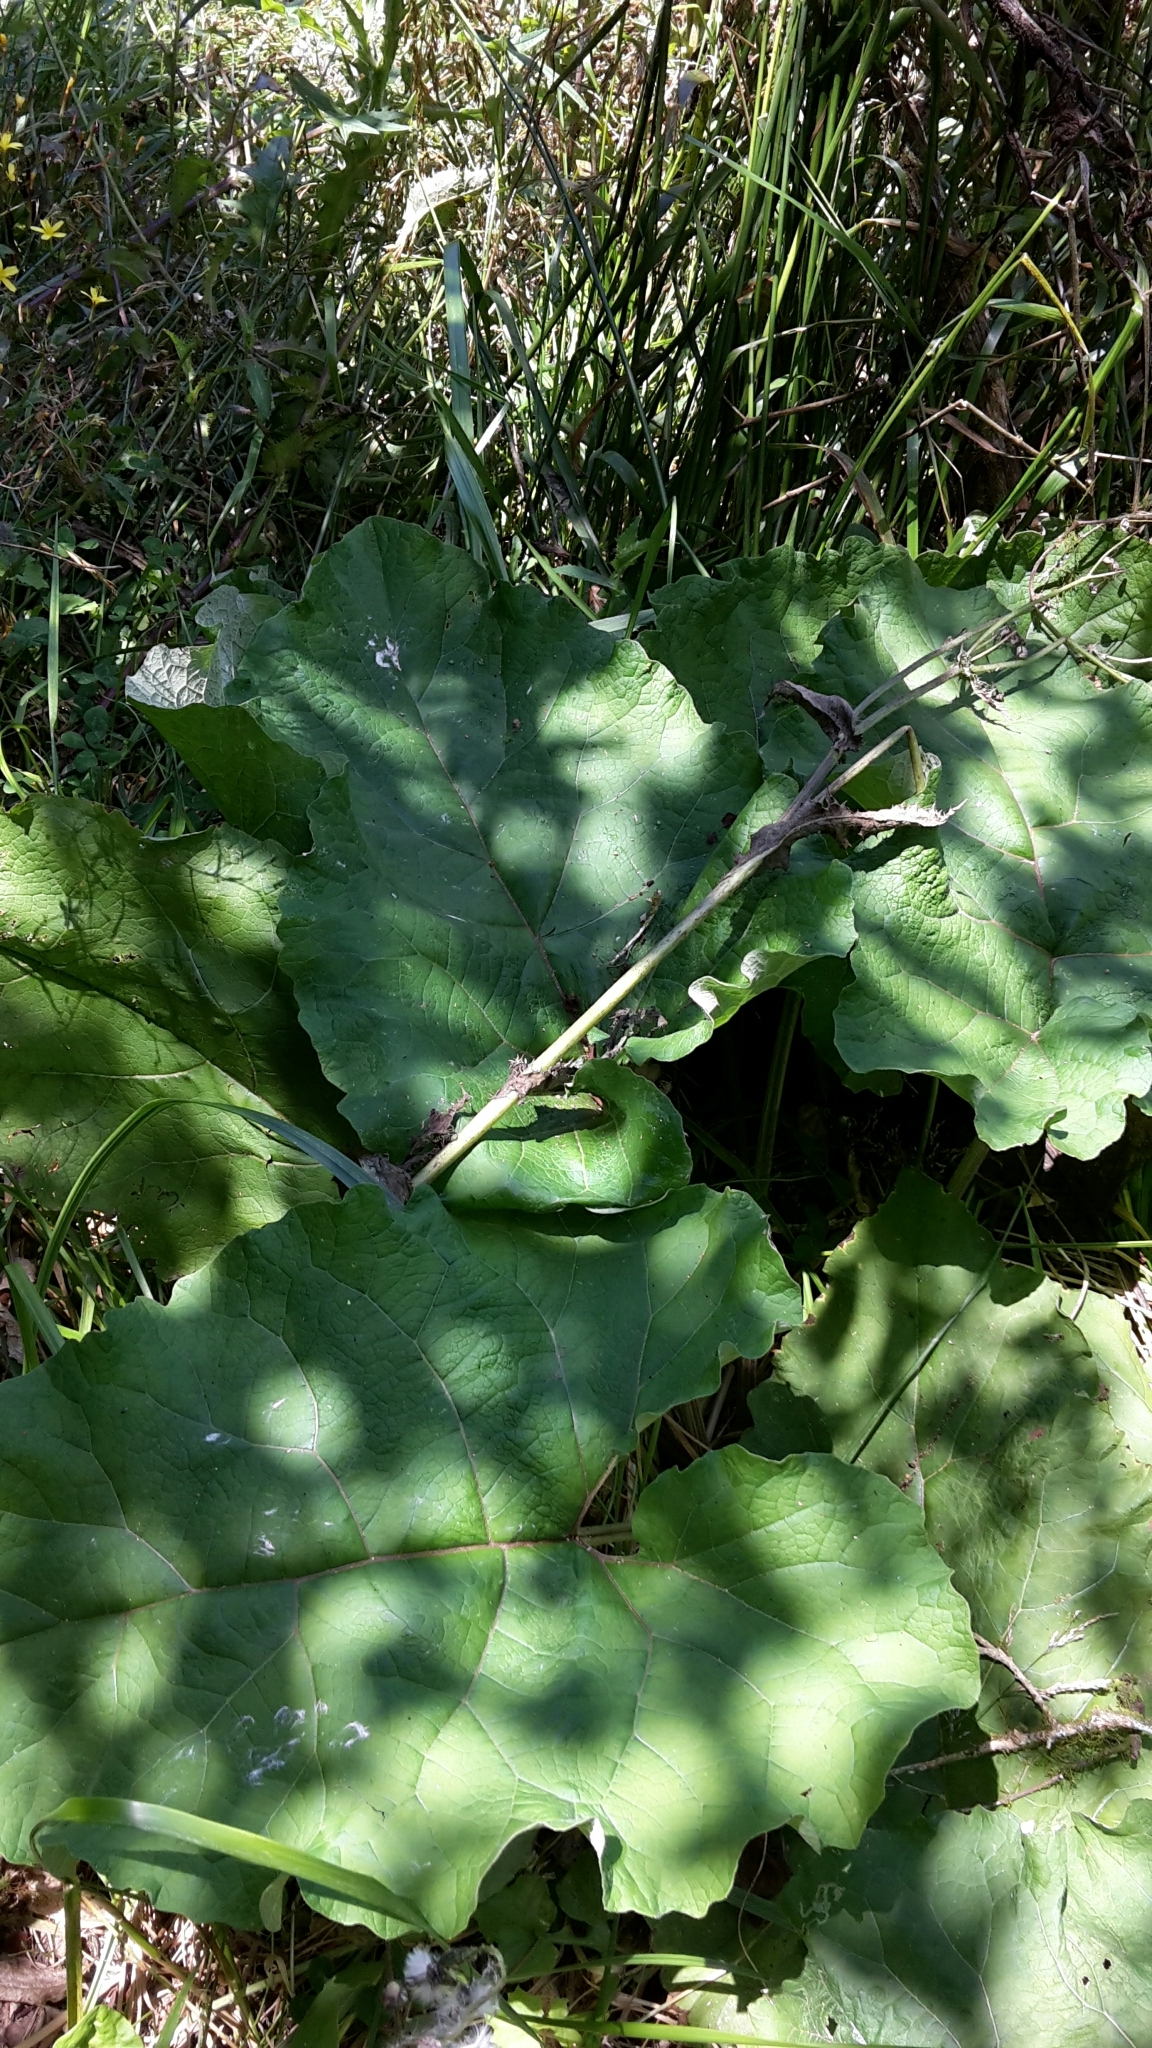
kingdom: Plantae
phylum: Tracheophyta
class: Magnoliopsida
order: Asterales
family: Asteraceae
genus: Arctium
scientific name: Arctium minus
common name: Lesser burdock
